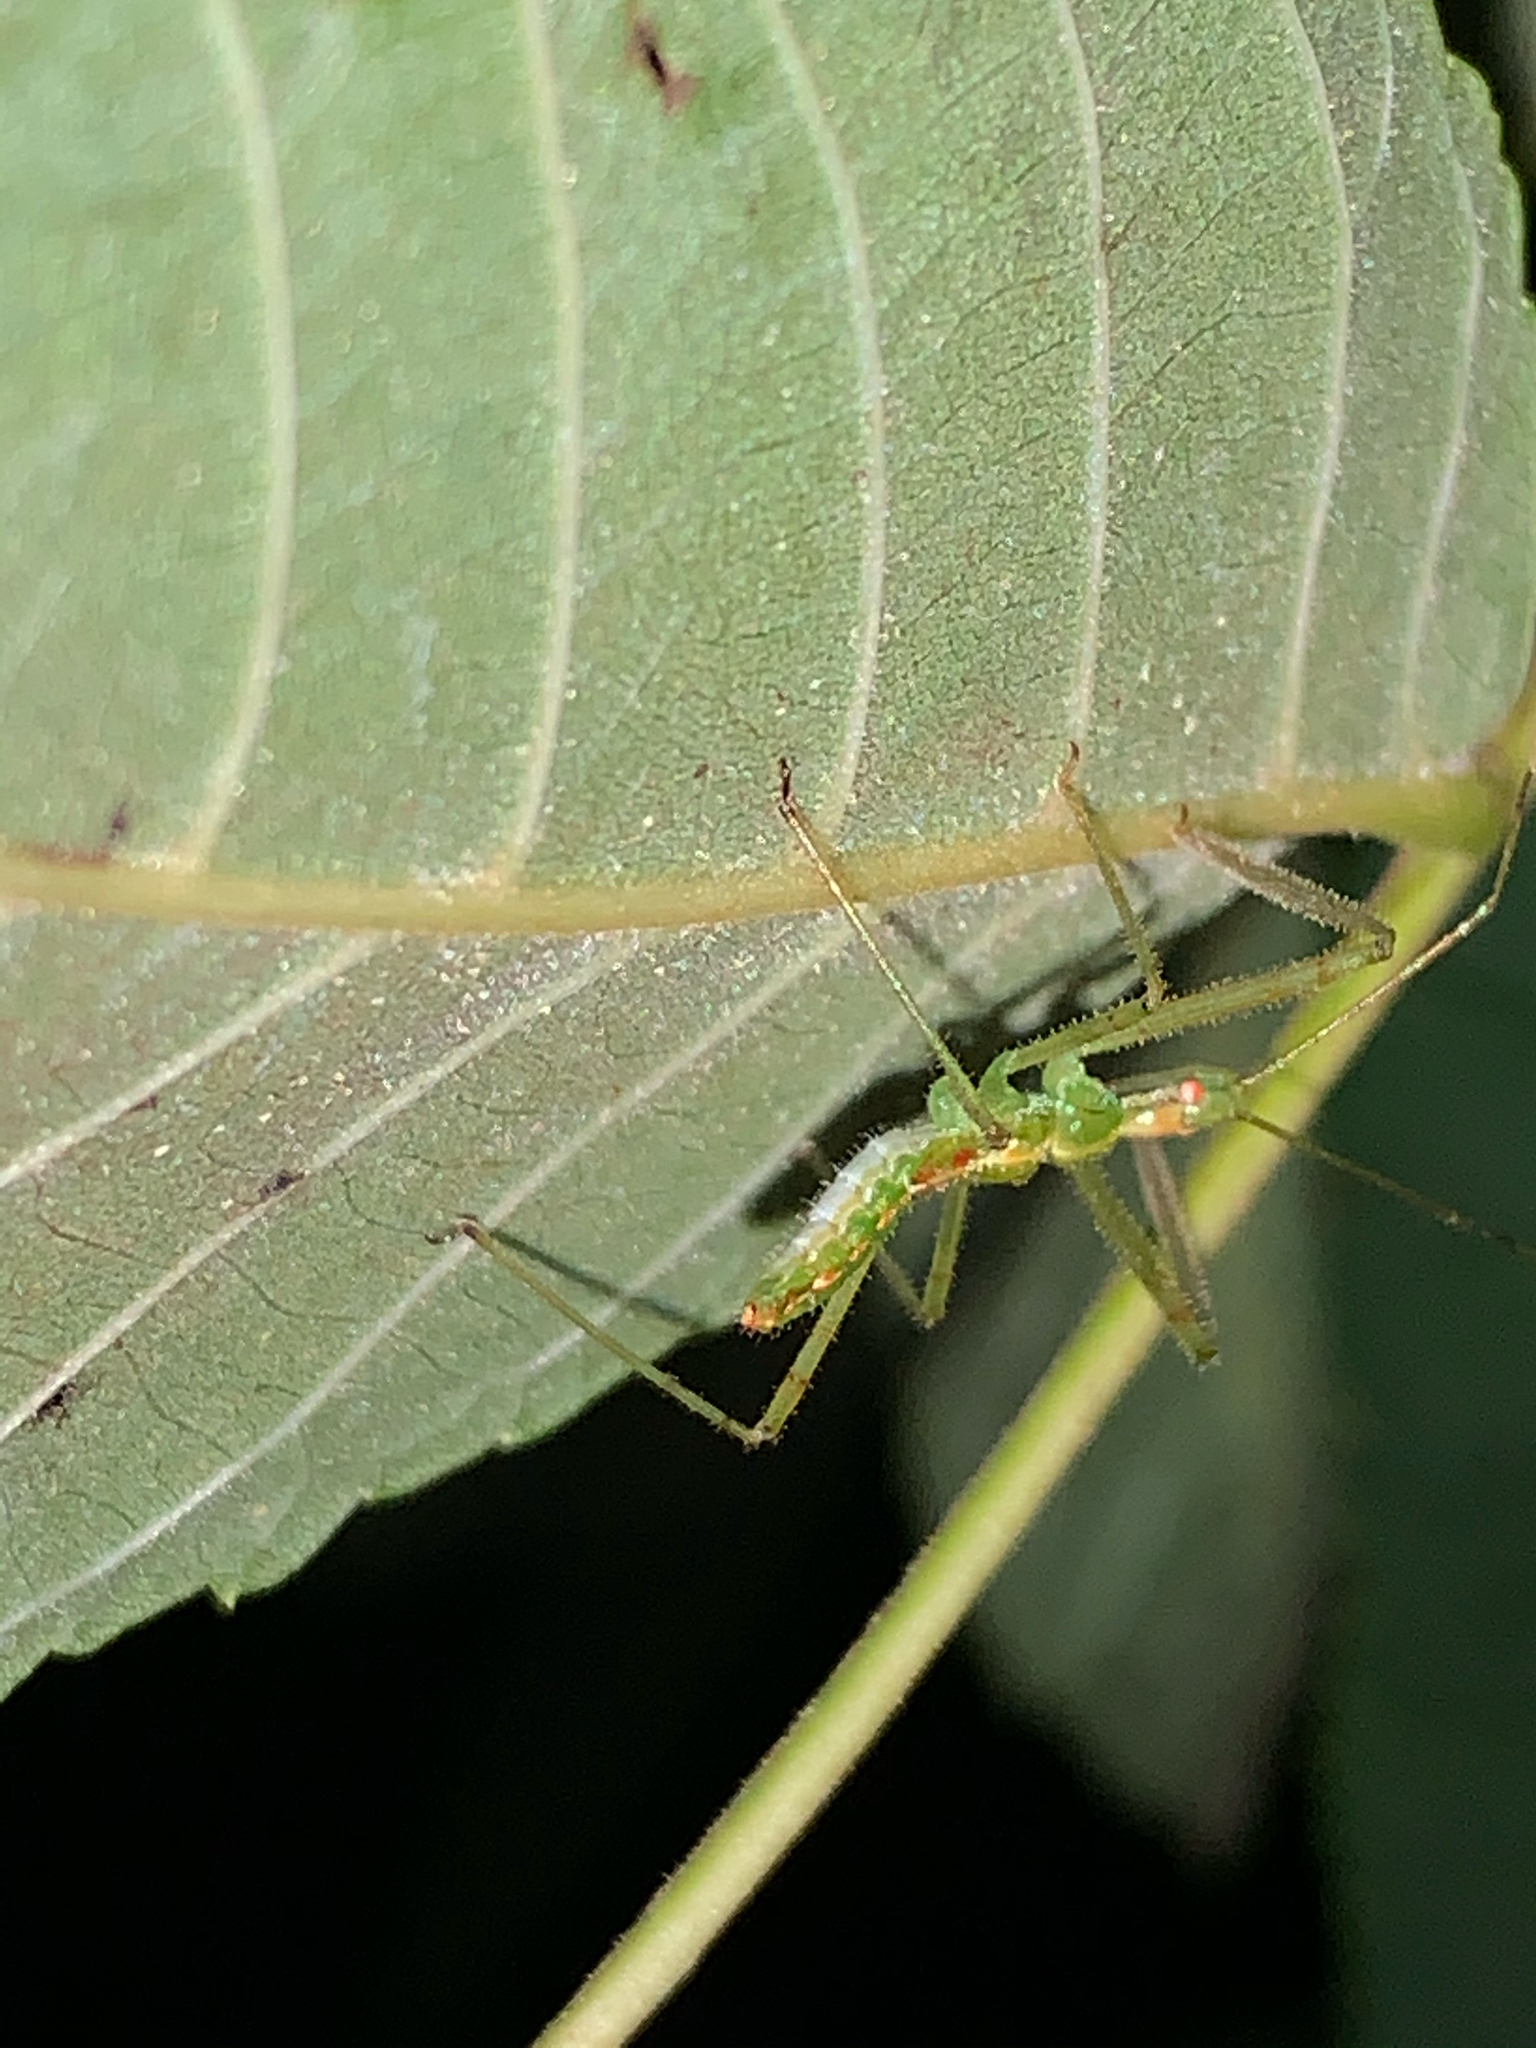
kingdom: Animalia
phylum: Arthropoda
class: Insecta
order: Hemiptera
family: Reduviidae
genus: Zelus
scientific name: Zelus luridus
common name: Pale green assassin bug
